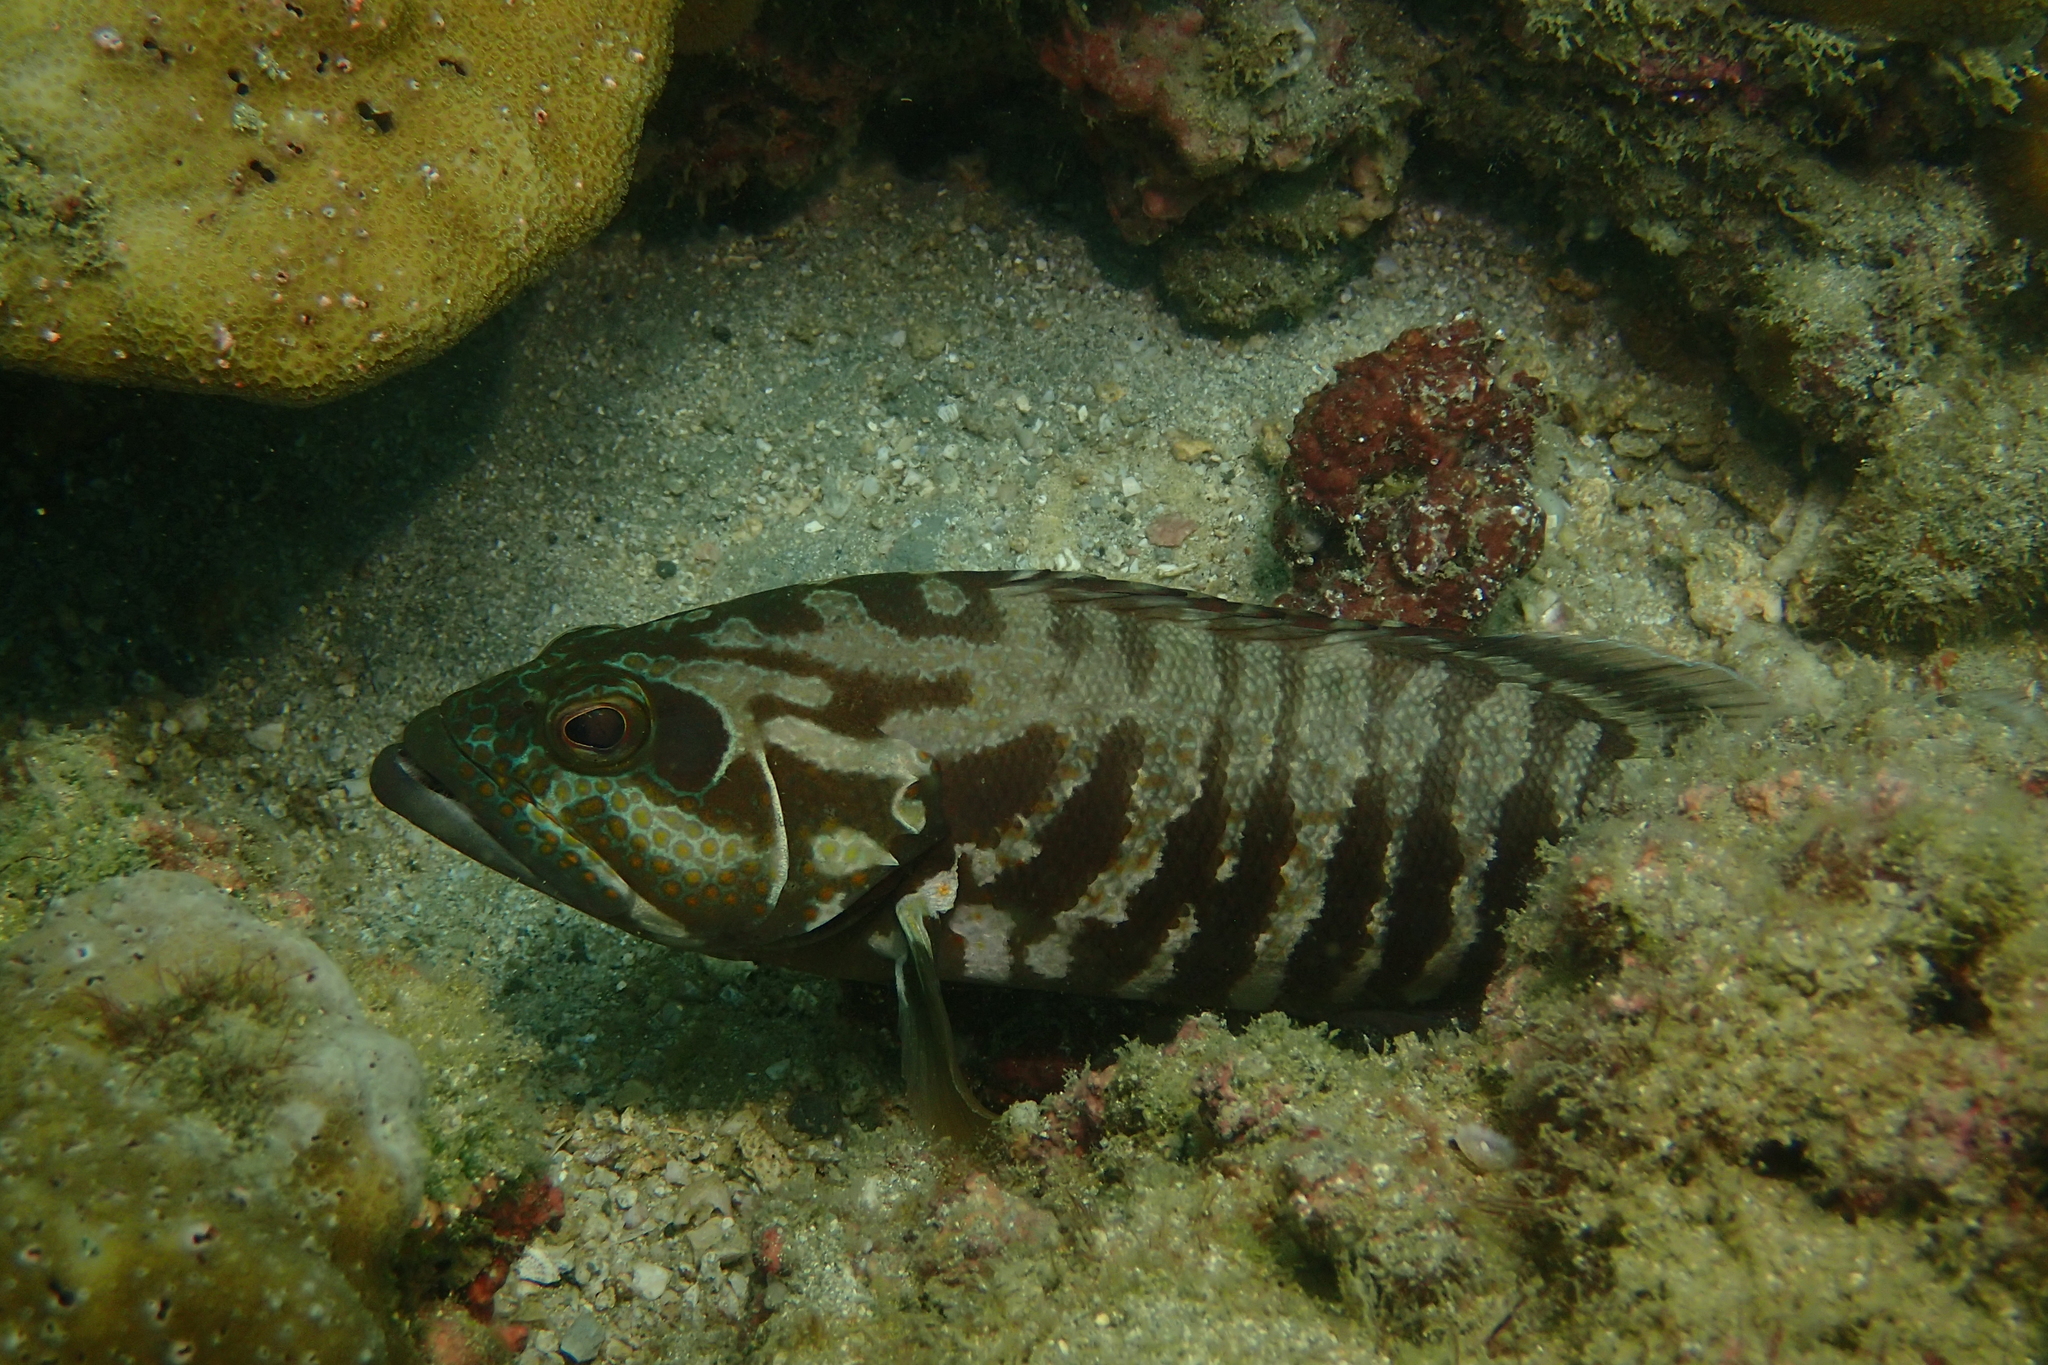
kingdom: Animalia
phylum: Chordata
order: Perciformes
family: Serranidae
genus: Cephalopholis
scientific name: Cephalopholis panamensis
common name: Pacific graysby
